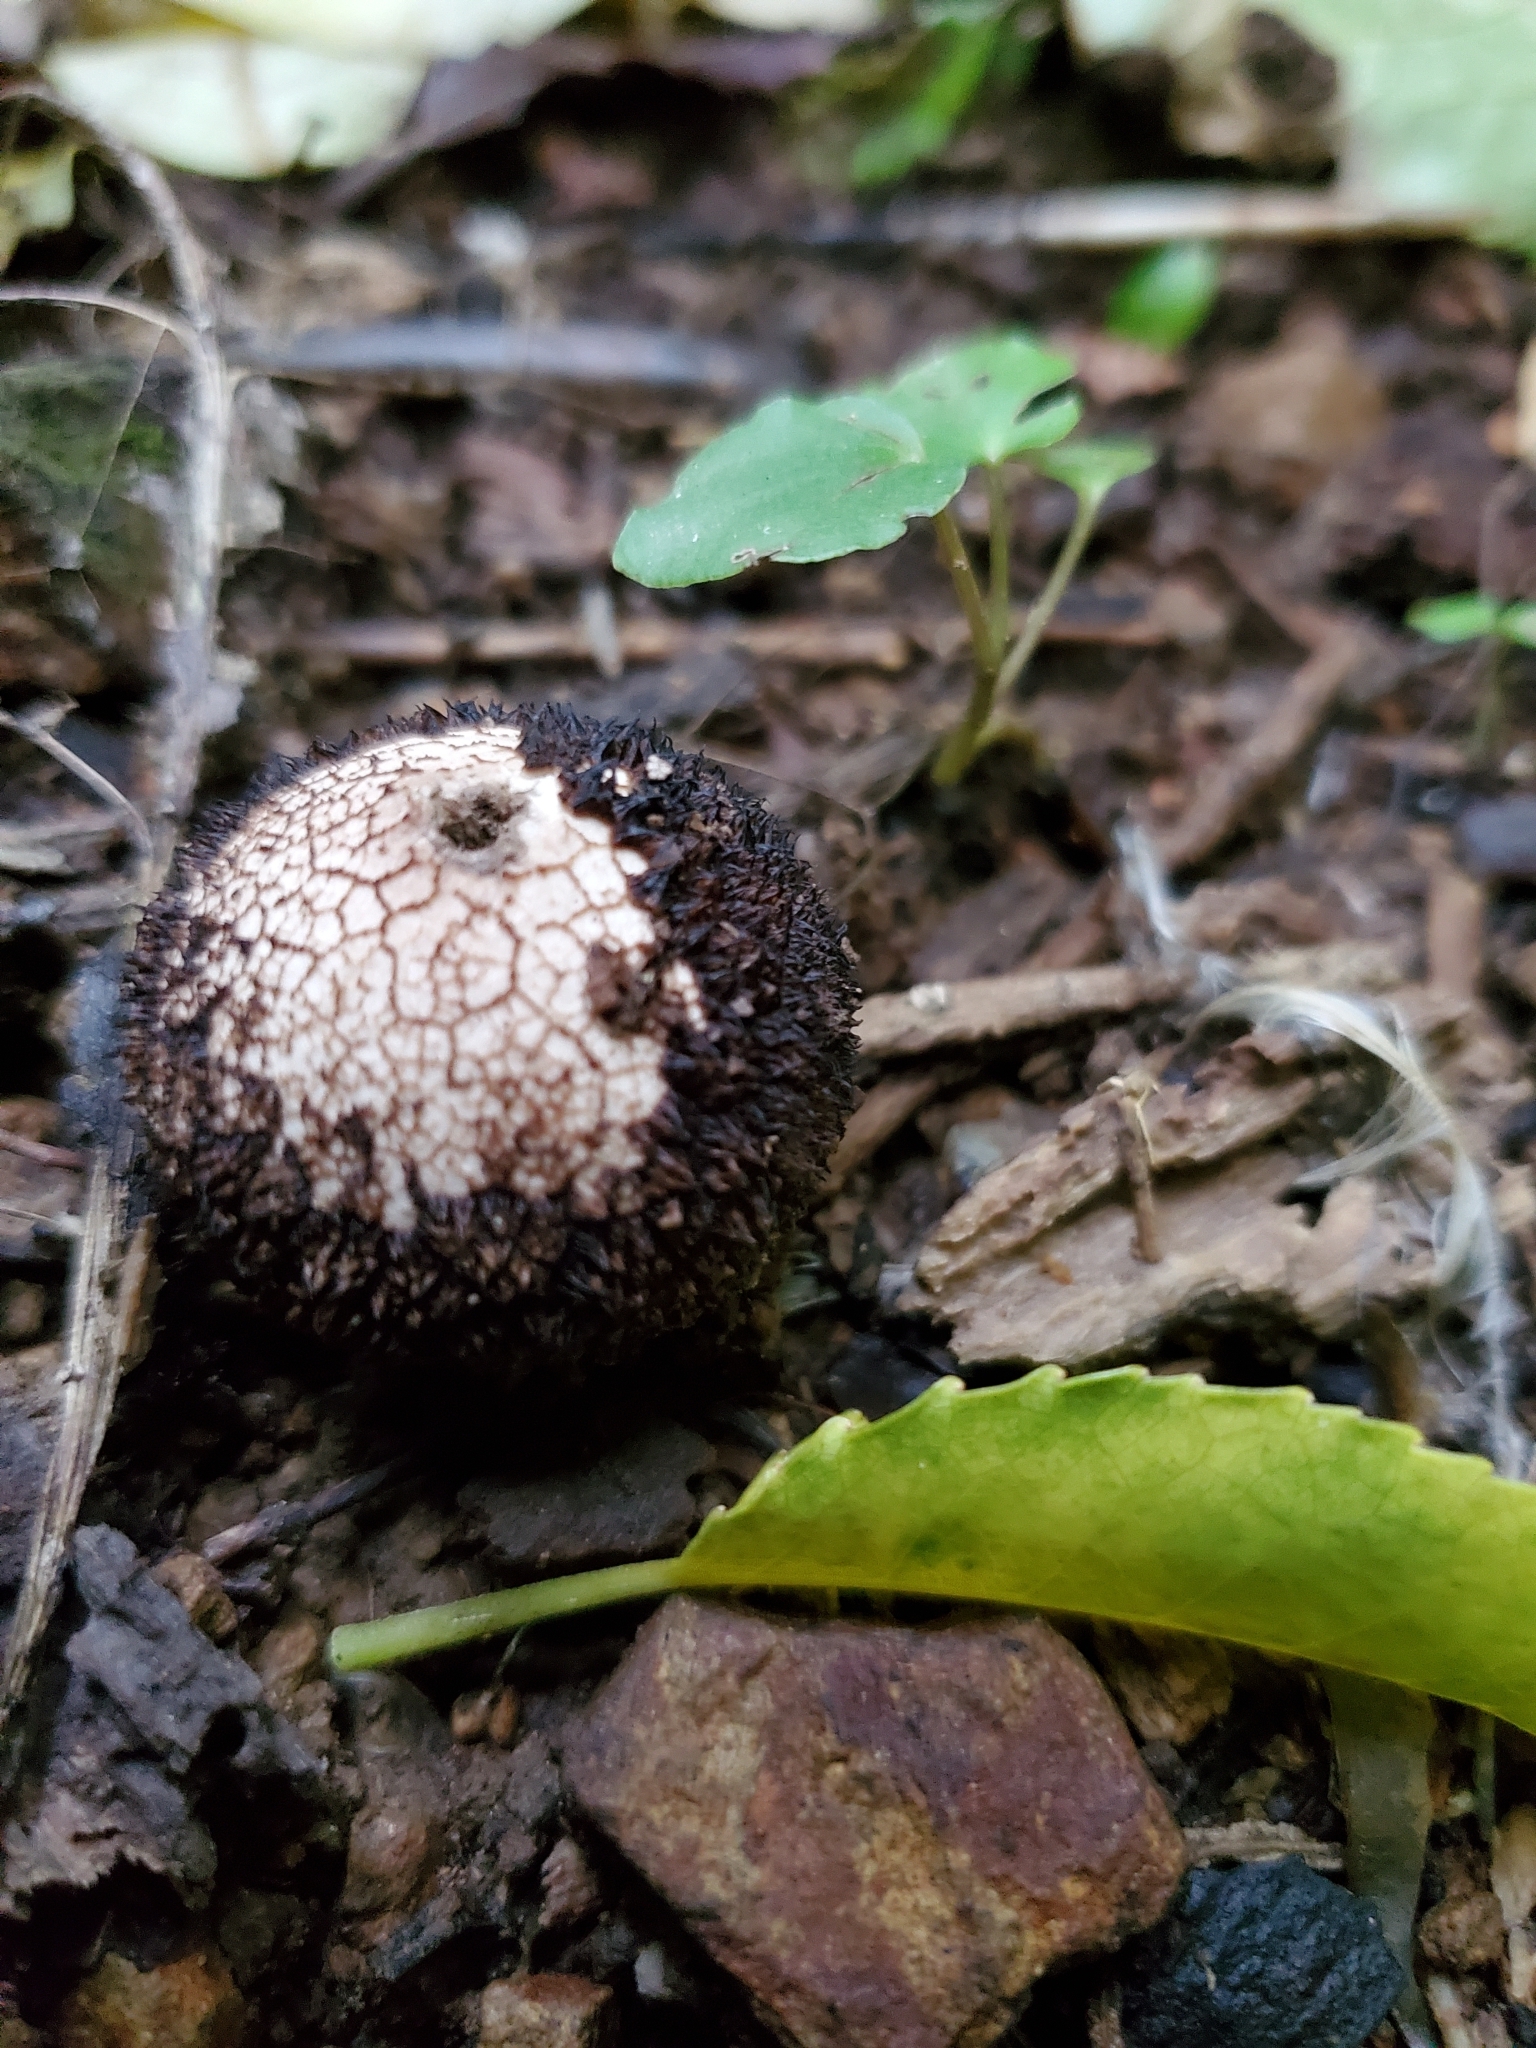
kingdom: Fungi
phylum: Basidiomycota
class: Agaricomycetes
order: Agaricales
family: Lycoperdaceae
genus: Lycoperdon
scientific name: Lycoperdon compactum
